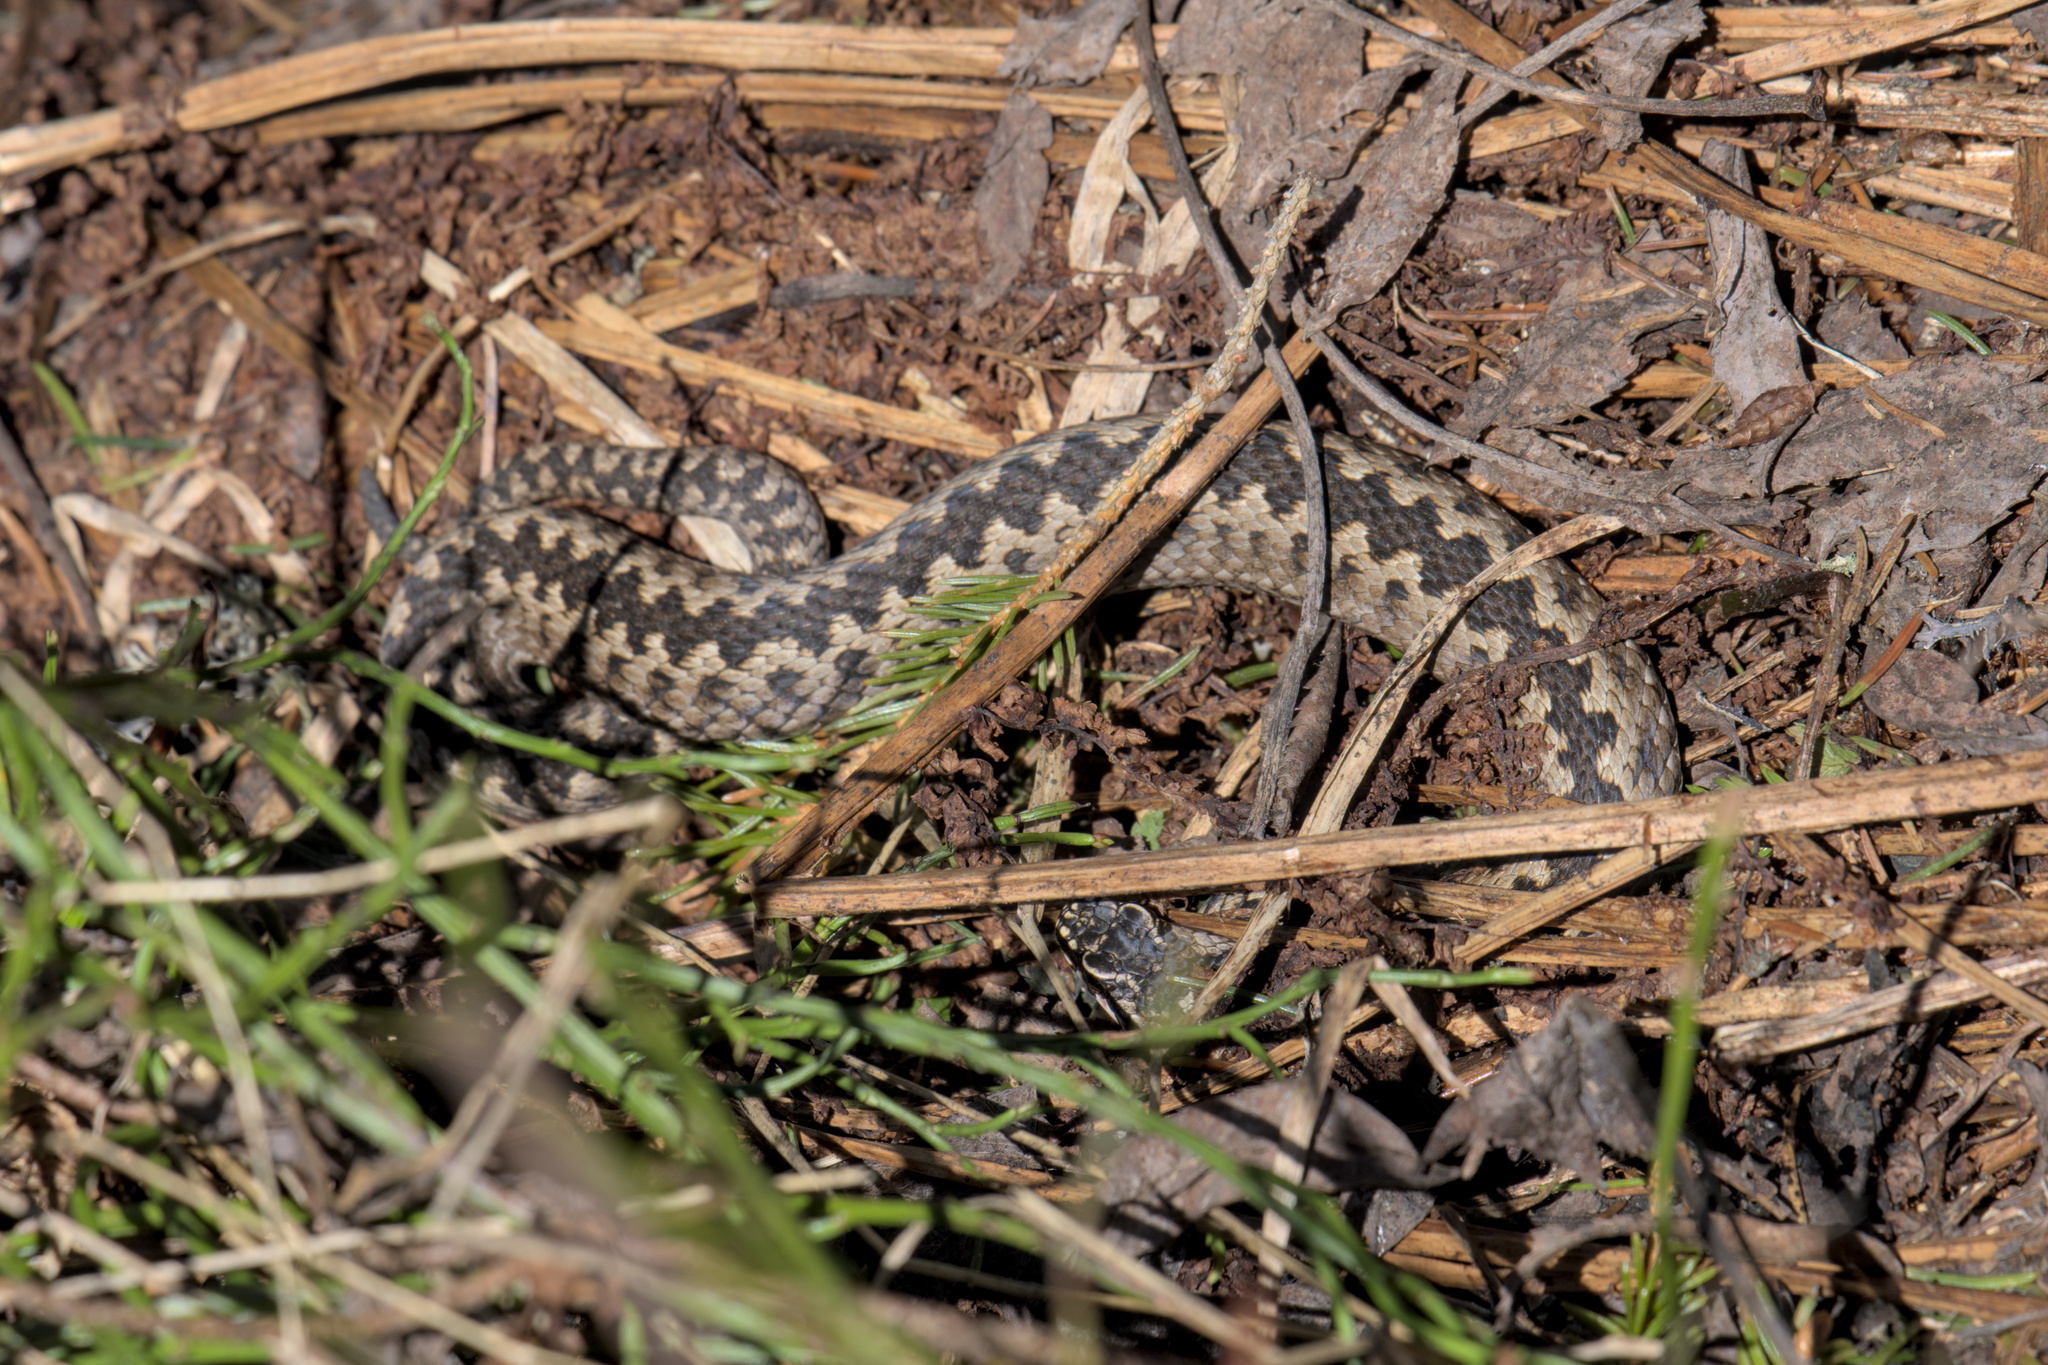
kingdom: Animalia
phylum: Chordata
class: Squamata
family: Viperidae
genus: Vipera
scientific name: Vipera berus
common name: Adder
